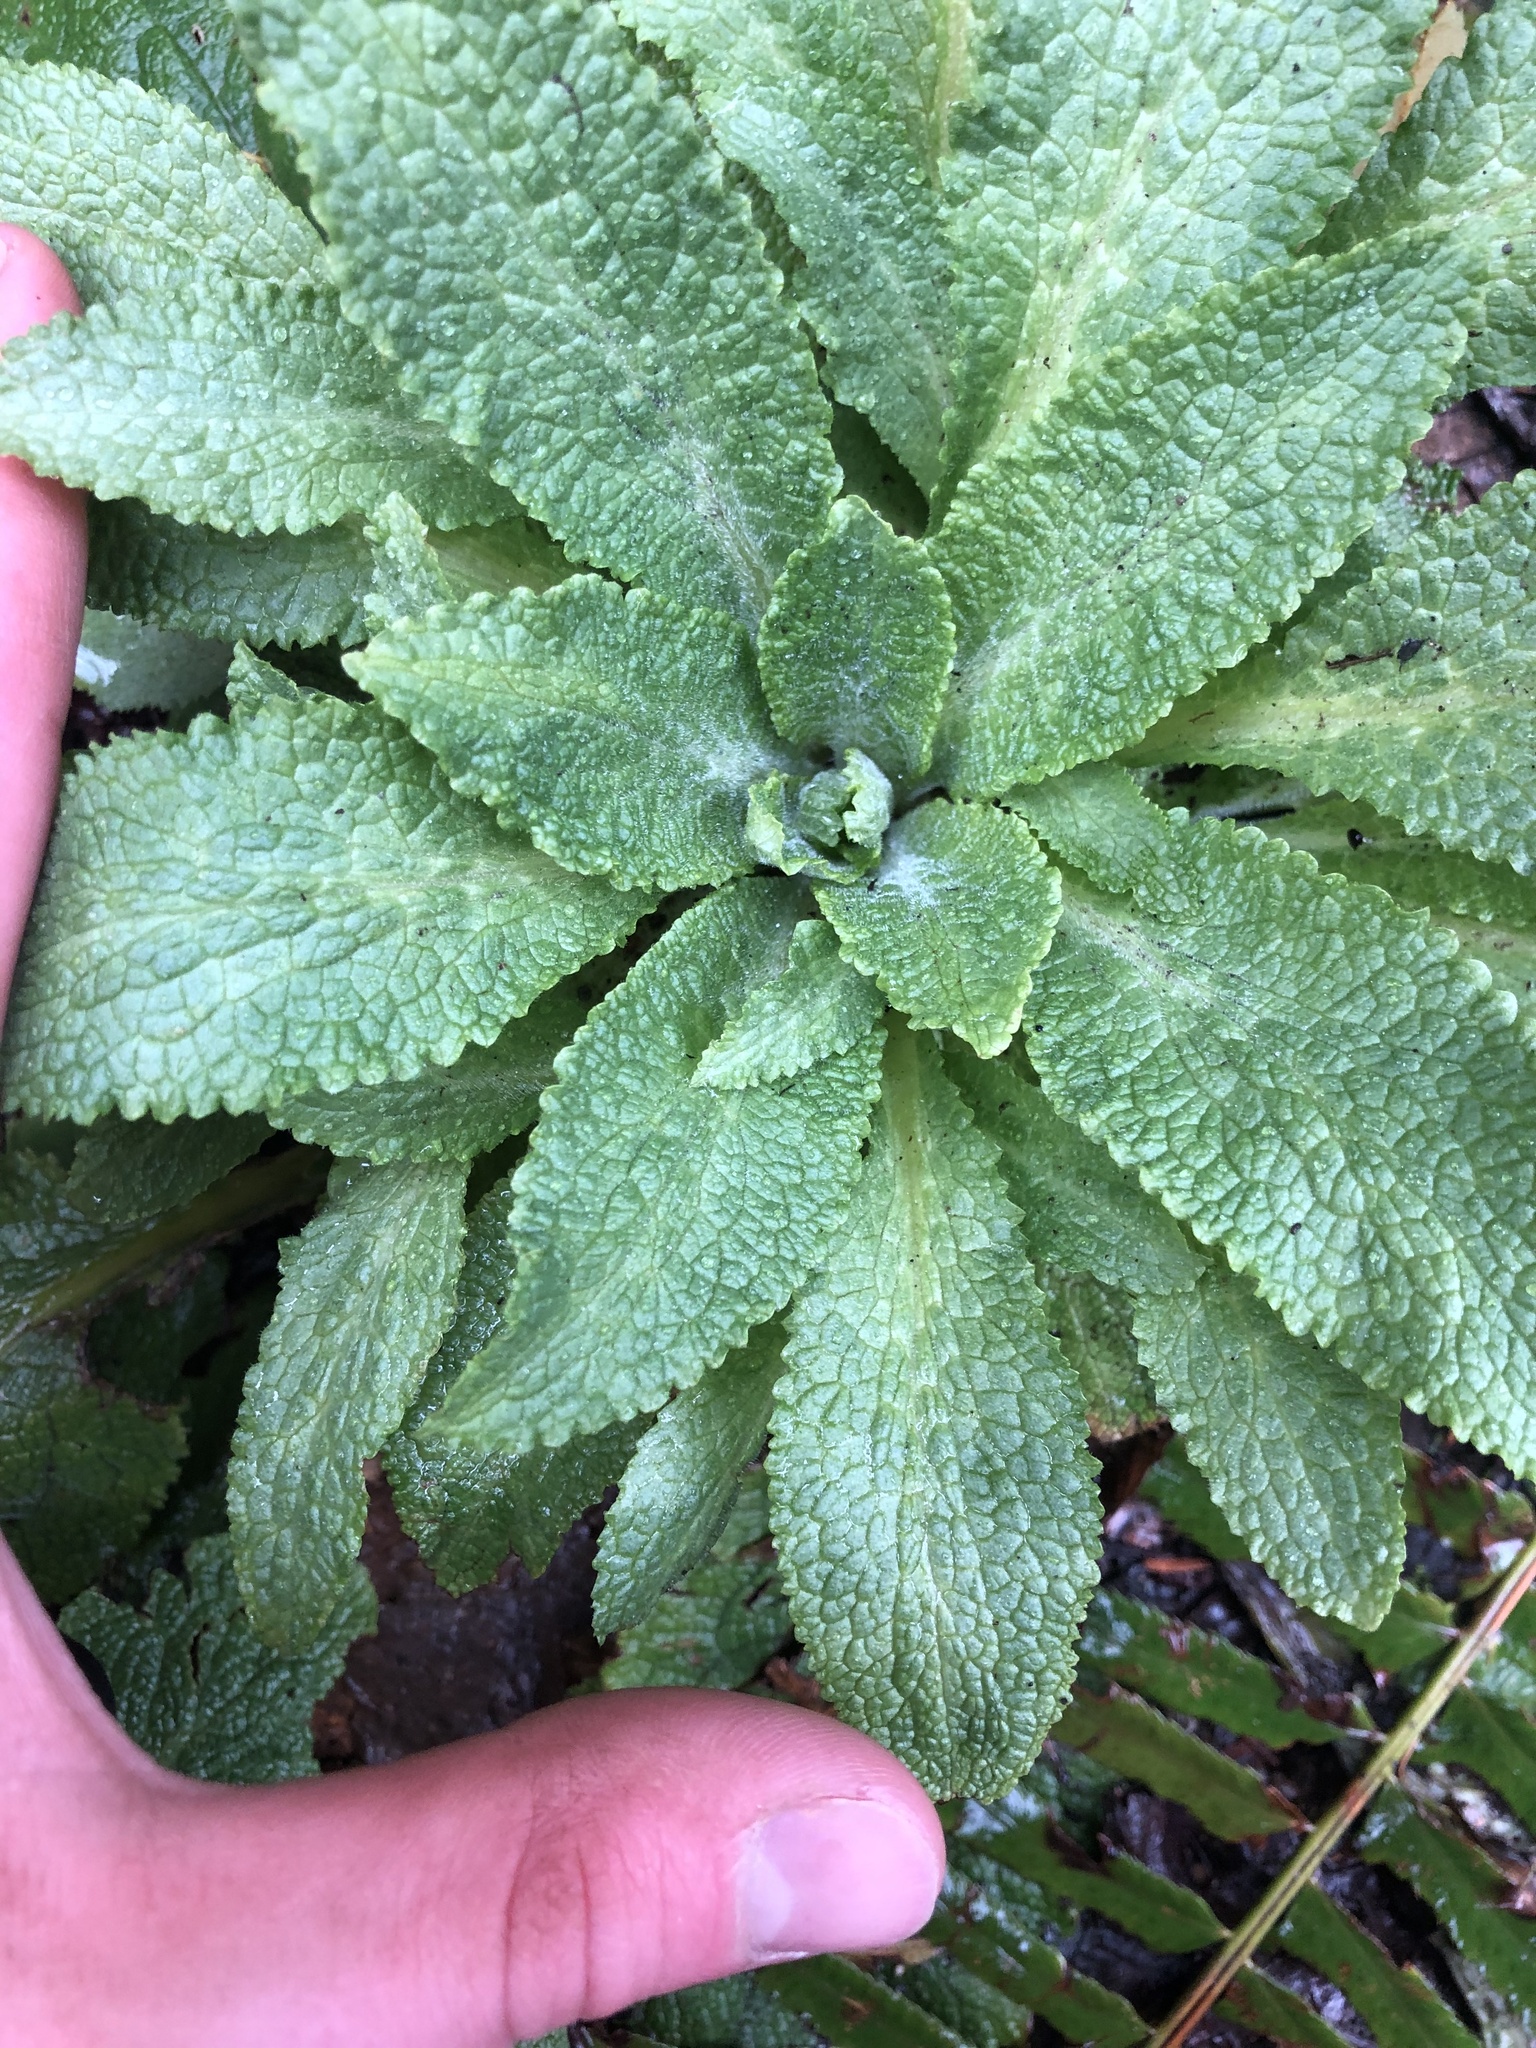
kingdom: Plantae
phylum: Tracheophyta
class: Magnoliopsida
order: Lamiales
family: Plantaginaceae
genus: Digitalis
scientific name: Digitalis purpurea
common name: Foxglove
